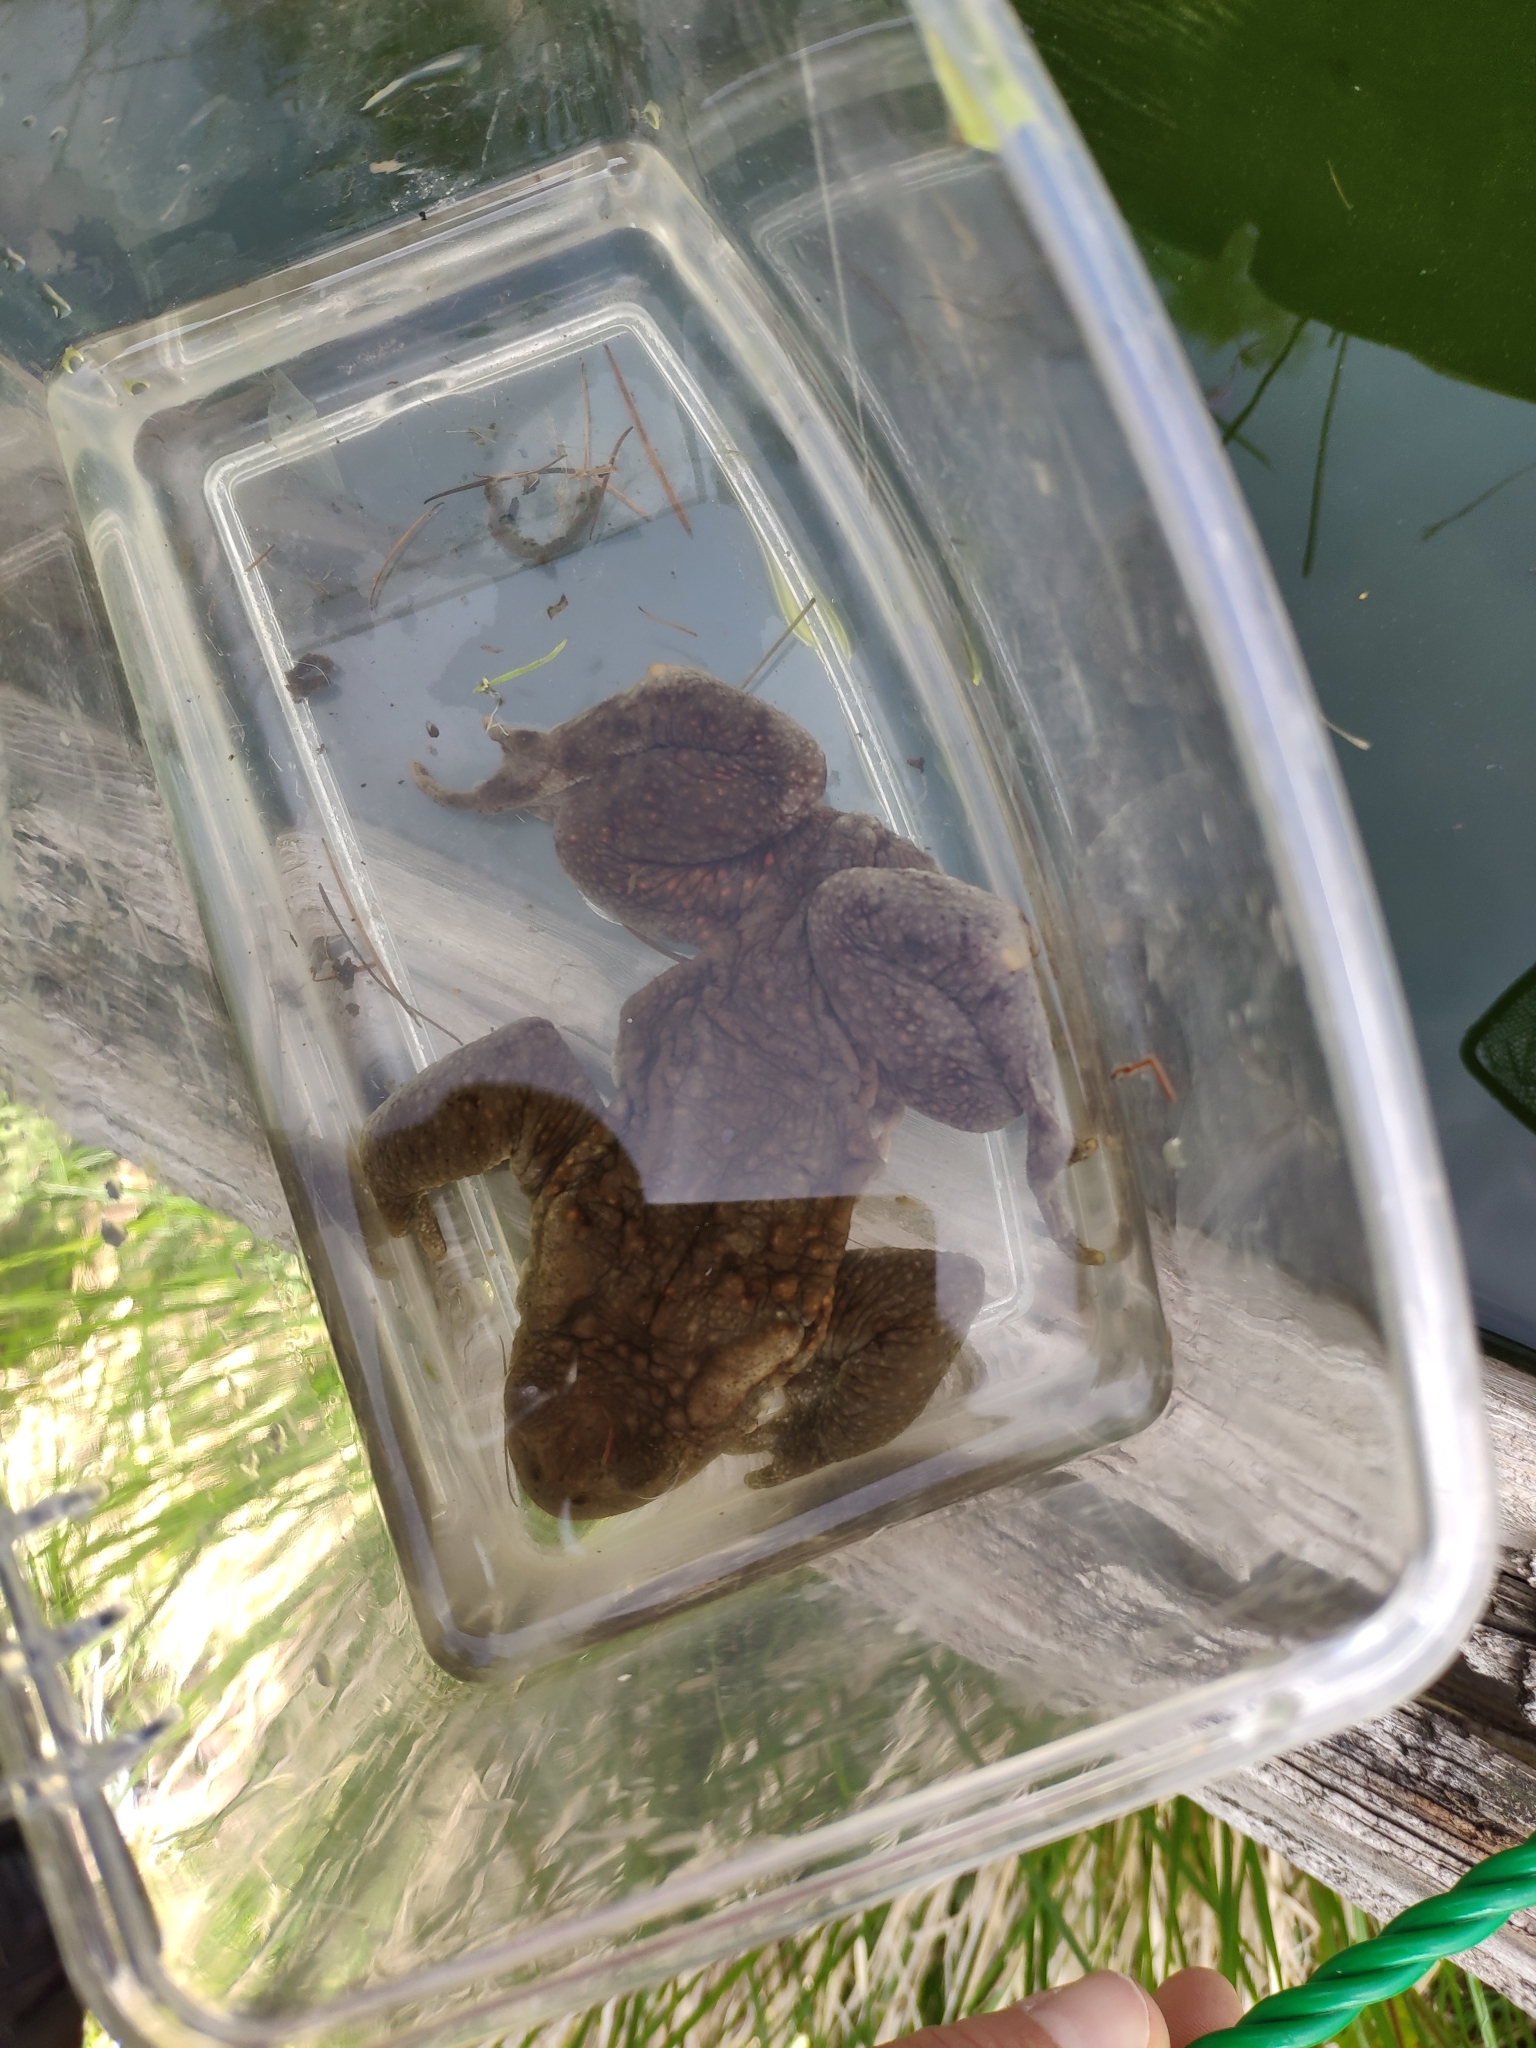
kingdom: Animalia
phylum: Chordata
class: Amphibia
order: Anura
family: Bufonidae
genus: Bufo
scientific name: Bufo bufo
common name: Common toad
